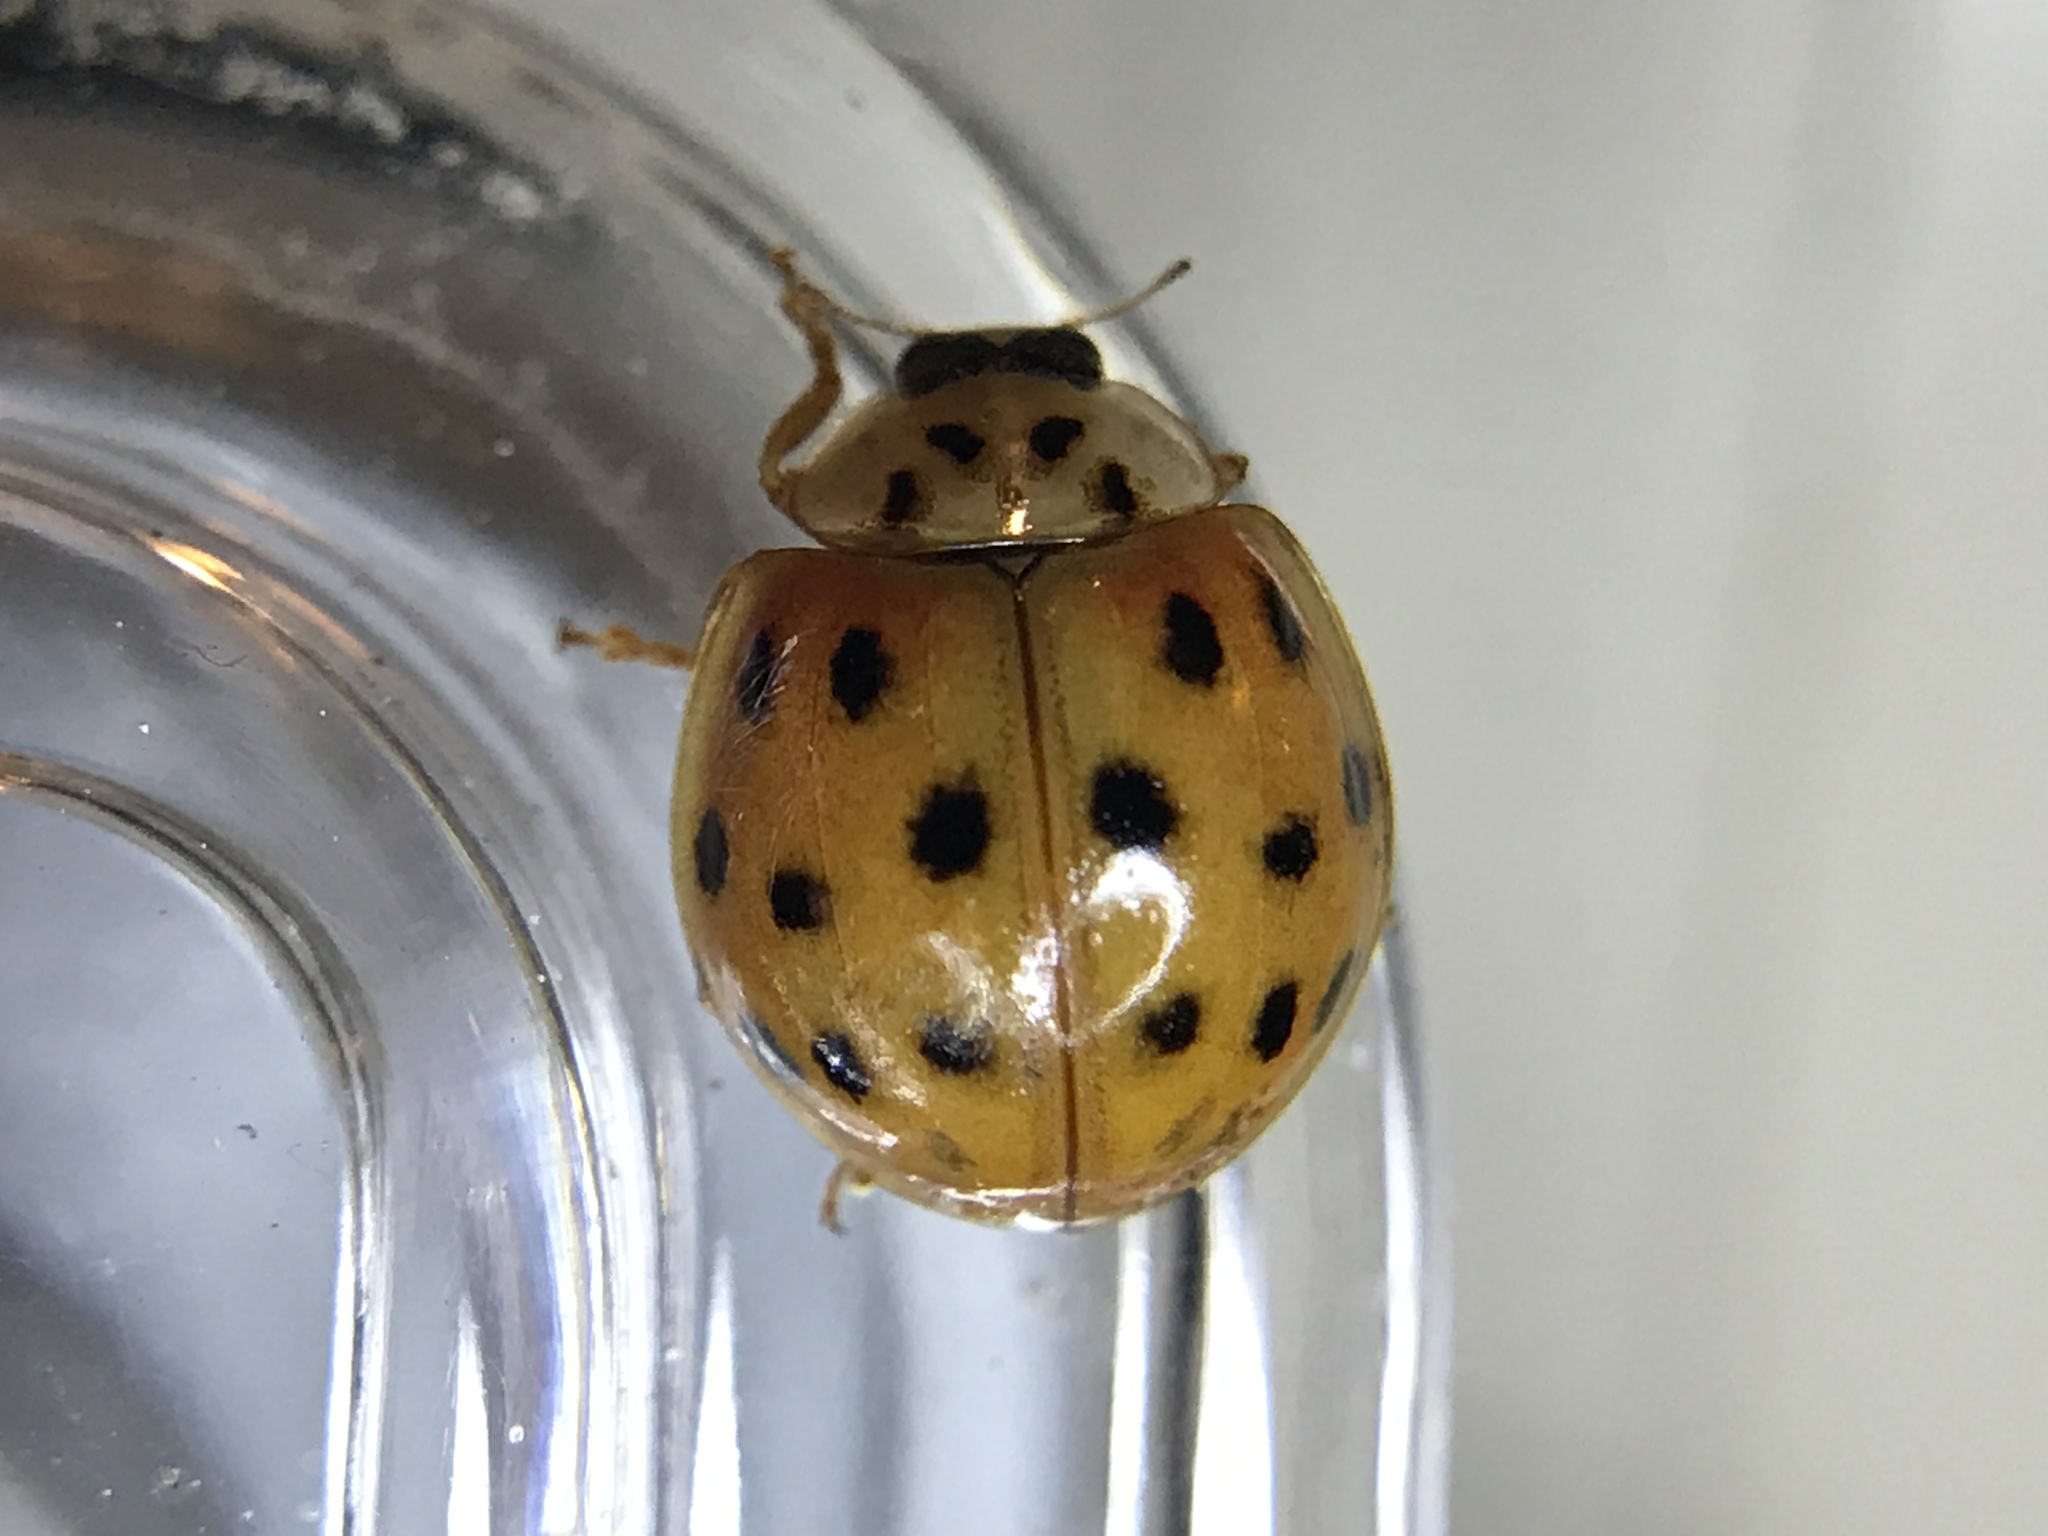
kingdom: Animalia
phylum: Arthropoda
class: Insecta
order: Coleoptera
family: Coccinellidae
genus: Harmonia
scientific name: Harmonia axyridis
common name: Harlequin ladybird
